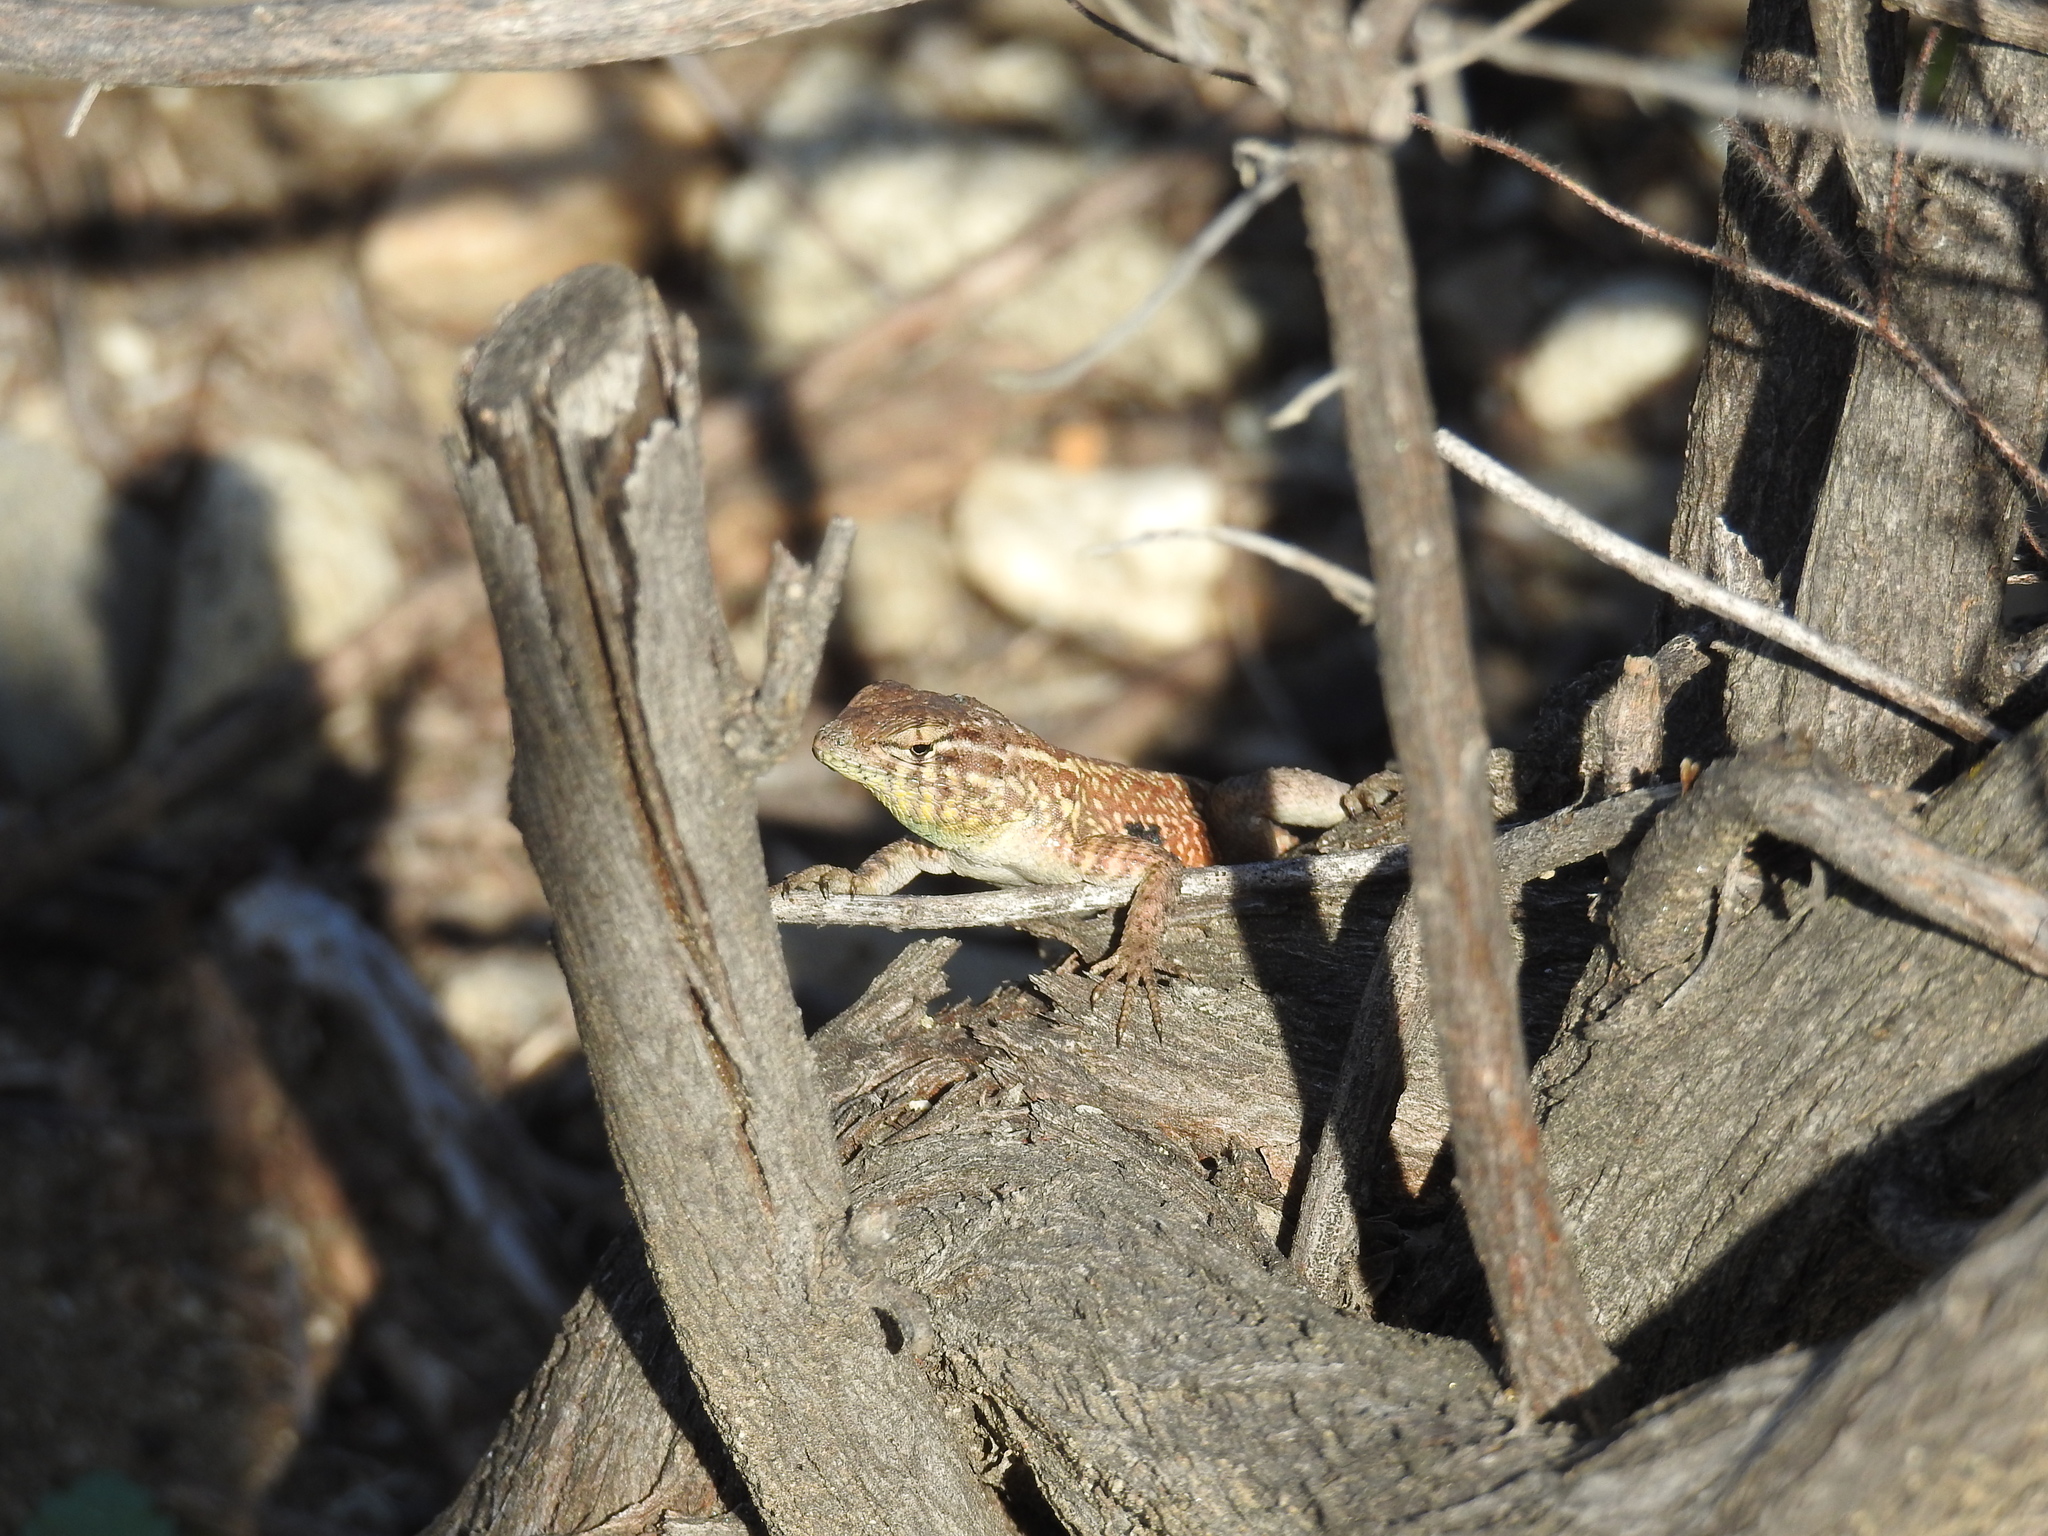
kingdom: Animalia
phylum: Chordata
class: Squamata
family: Phrynosomatidae
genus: Uta
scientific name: Uta stansburiana
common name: Side-blotched lizard
